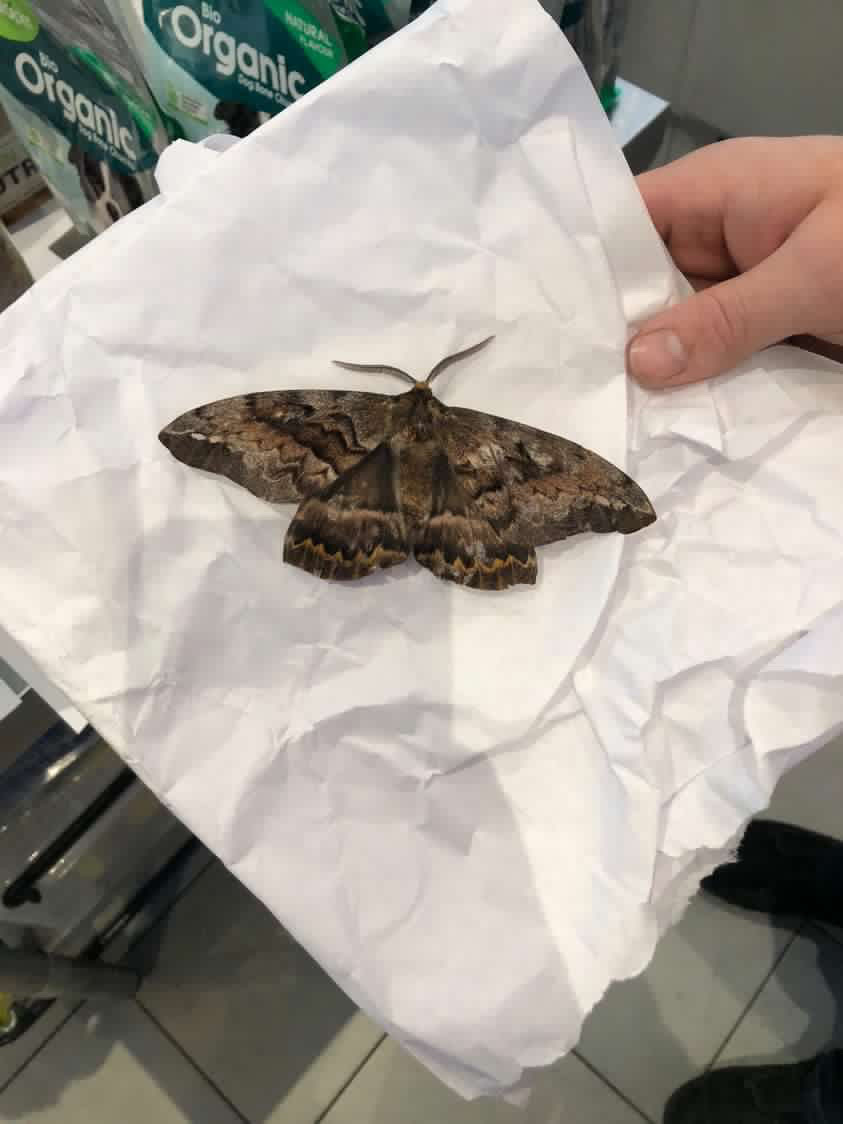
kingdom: Animalia
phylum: Arthropoda
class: Insecta
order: Lepidoptera
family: Anthelidae
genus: Chelepteryx
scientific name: Chelepteryx collesi
